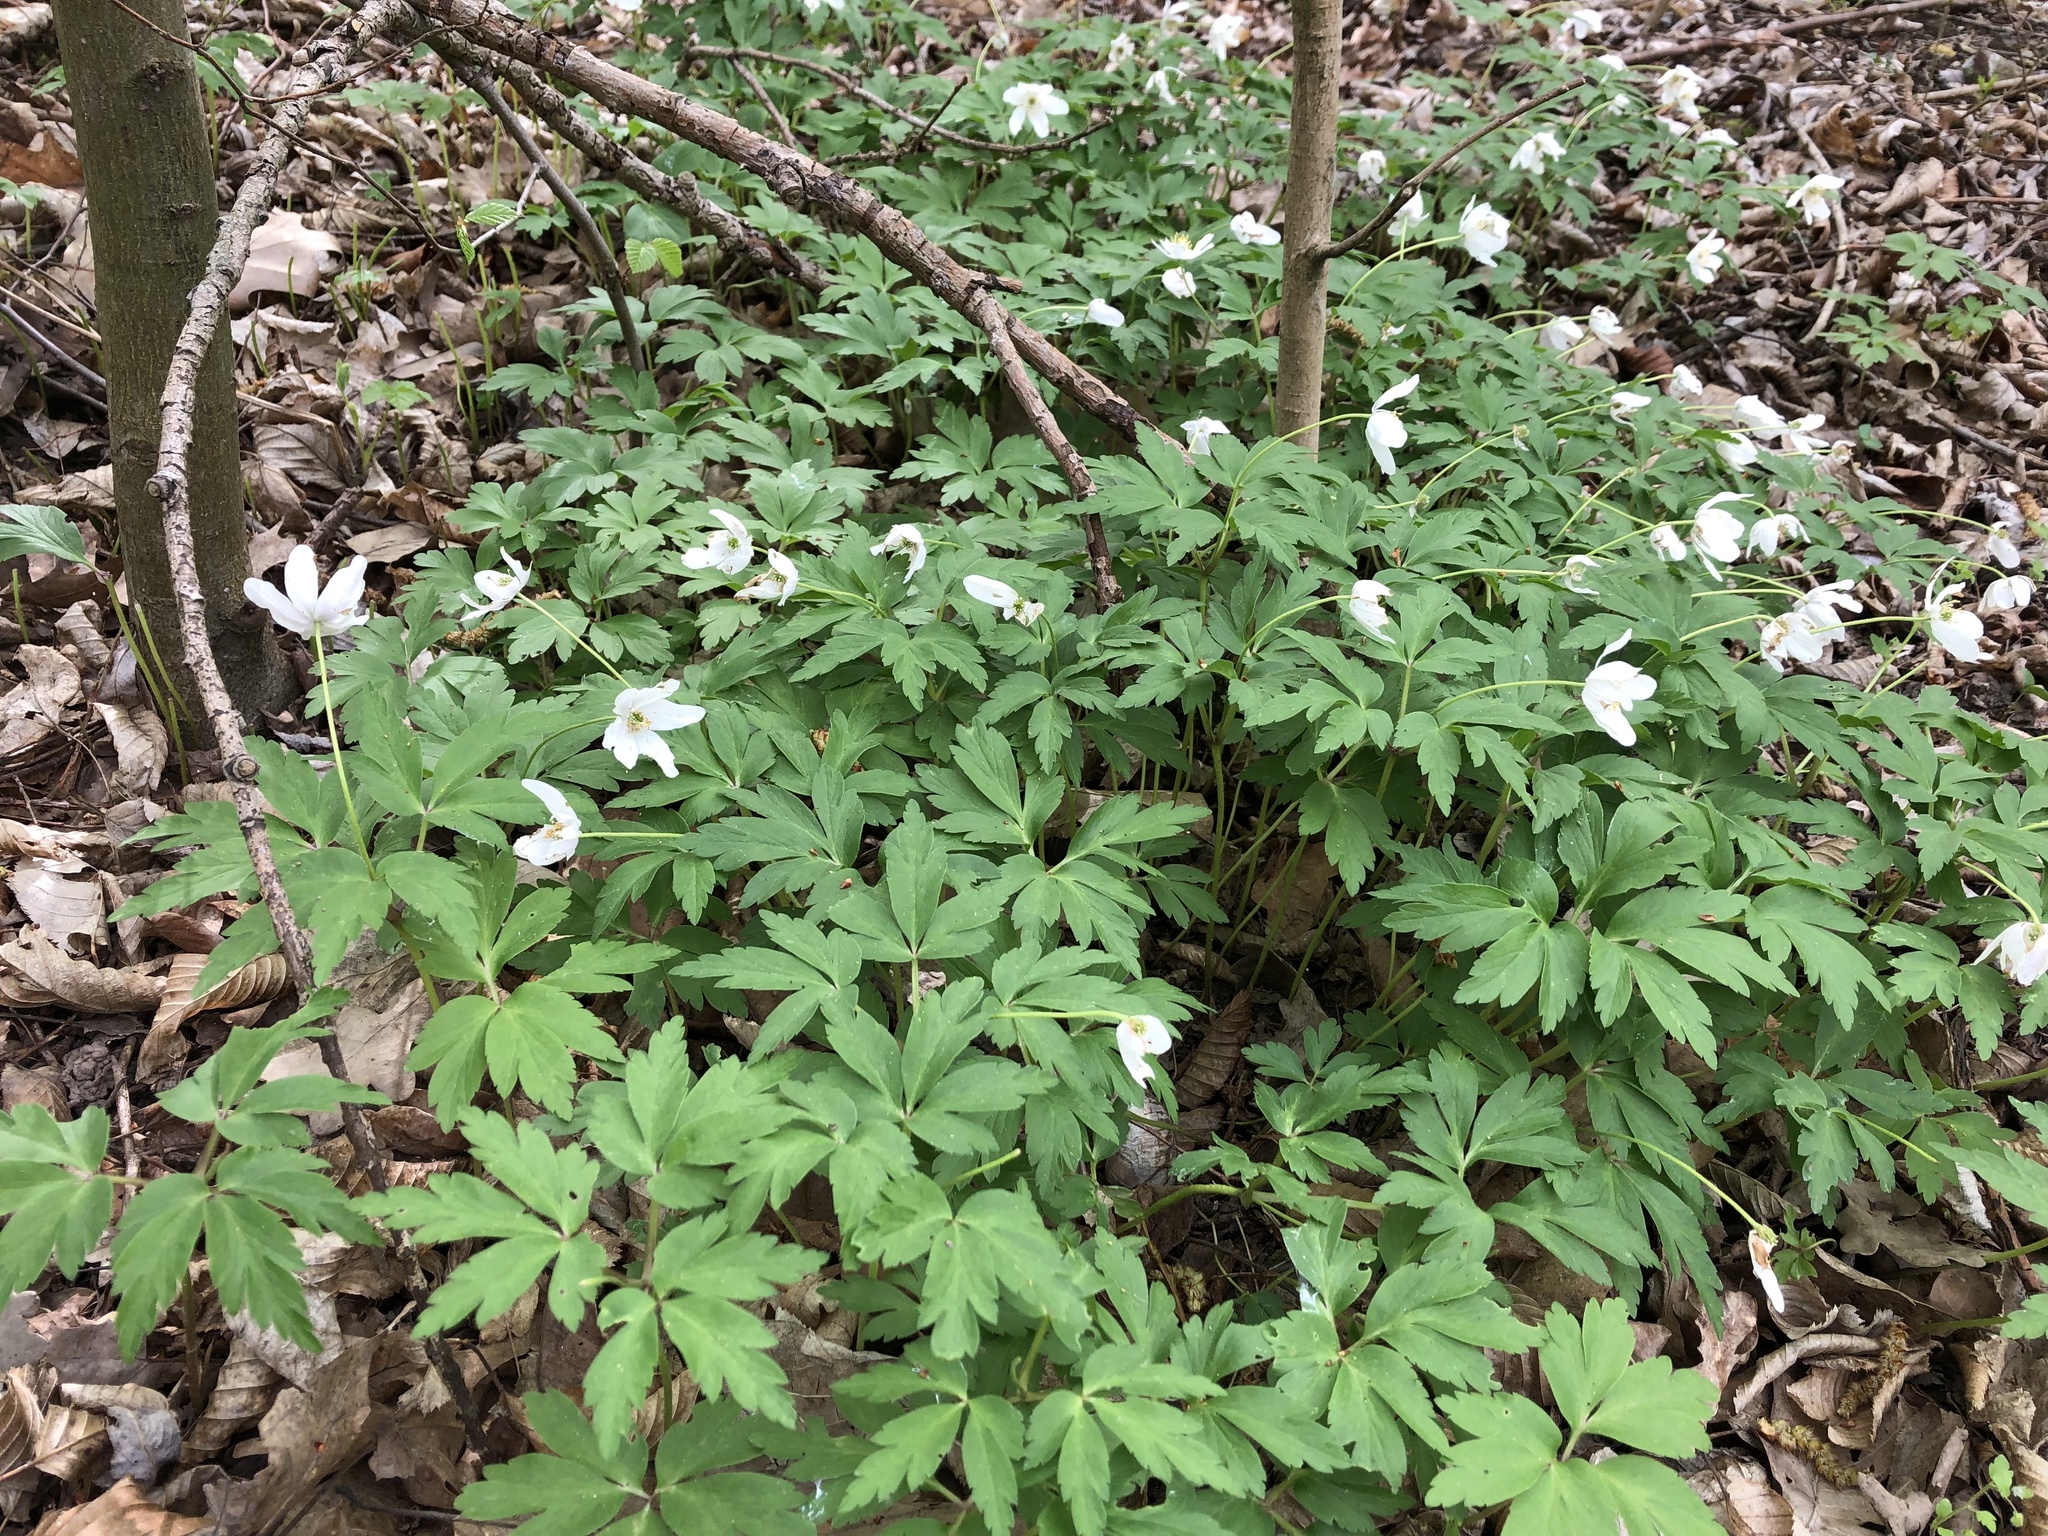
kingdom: Plantae
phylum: Tracheophyta
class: Magnoliopsida
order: Ranunculales
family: Ranunculaceae
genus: Anemone
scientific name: Anemone nemorosa
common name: Wood anemone
